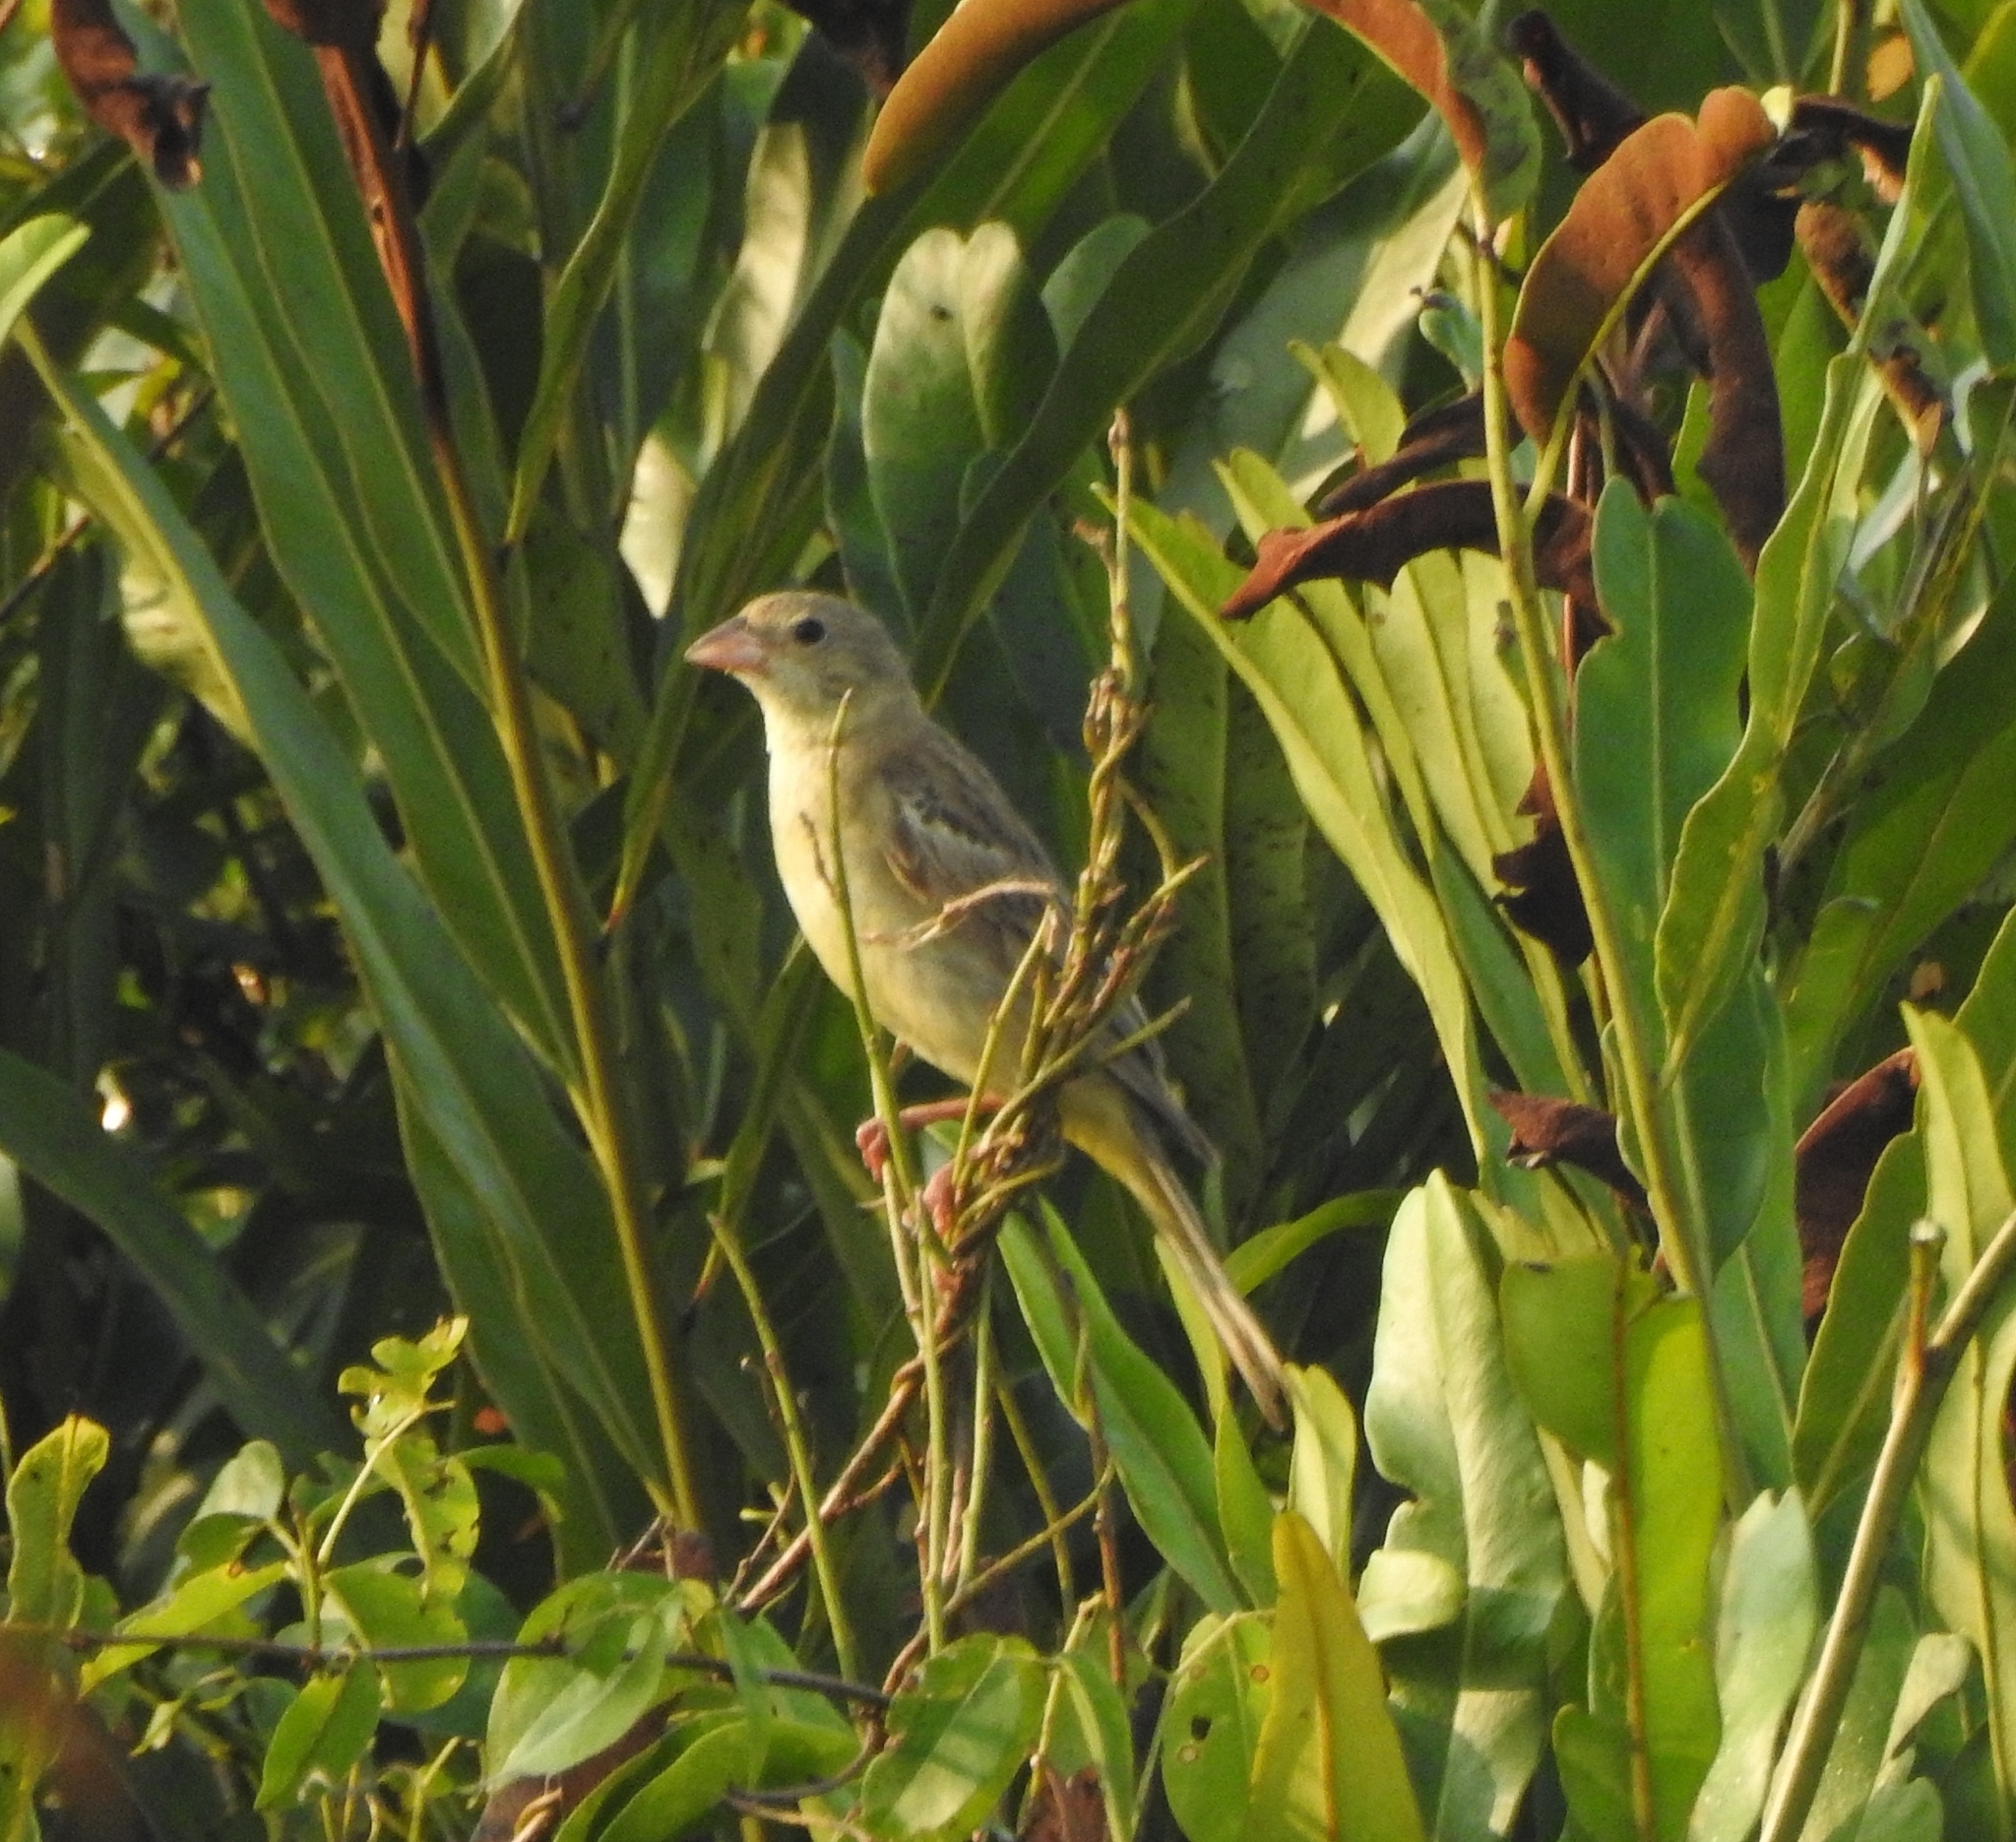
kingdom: Animalia
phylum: Chordata
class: Aves
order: Passeriformes
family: Emberizidae
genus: Emberiza
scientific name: Emberiza melanocephala
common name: Black-headed bunting
